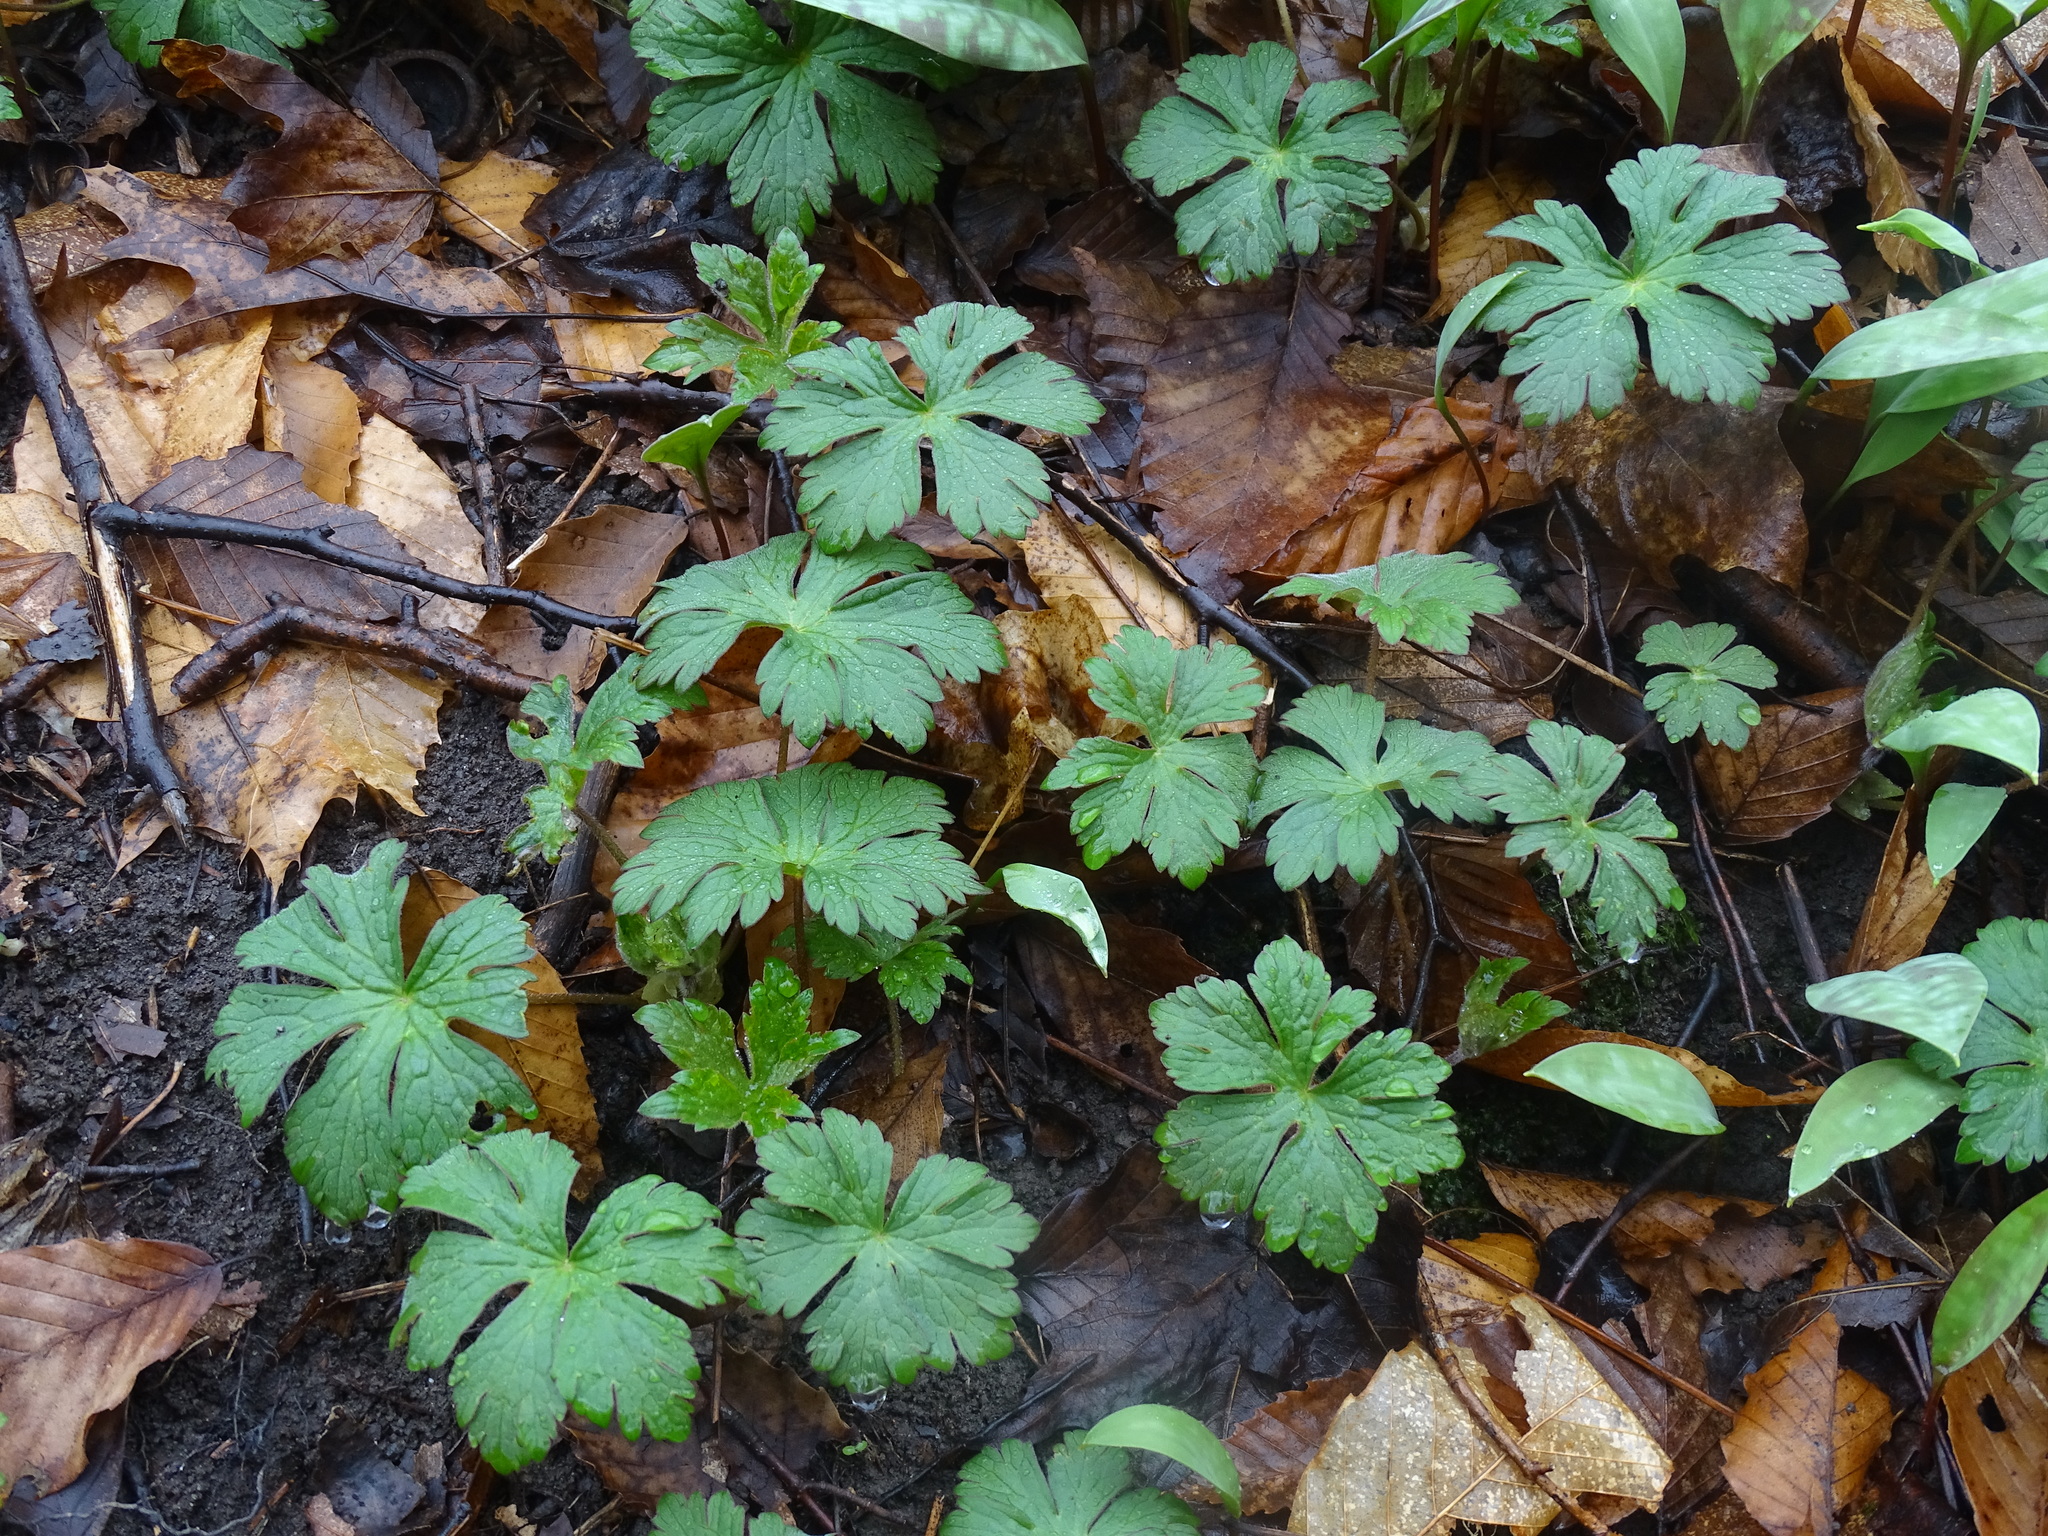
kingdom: Plantae
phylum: Tracheophyta
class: Magnoliopsida
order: Geraniales
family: Geraniaceae
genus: Geranium
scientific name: Geranium maculatum
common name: Spotted geranium
